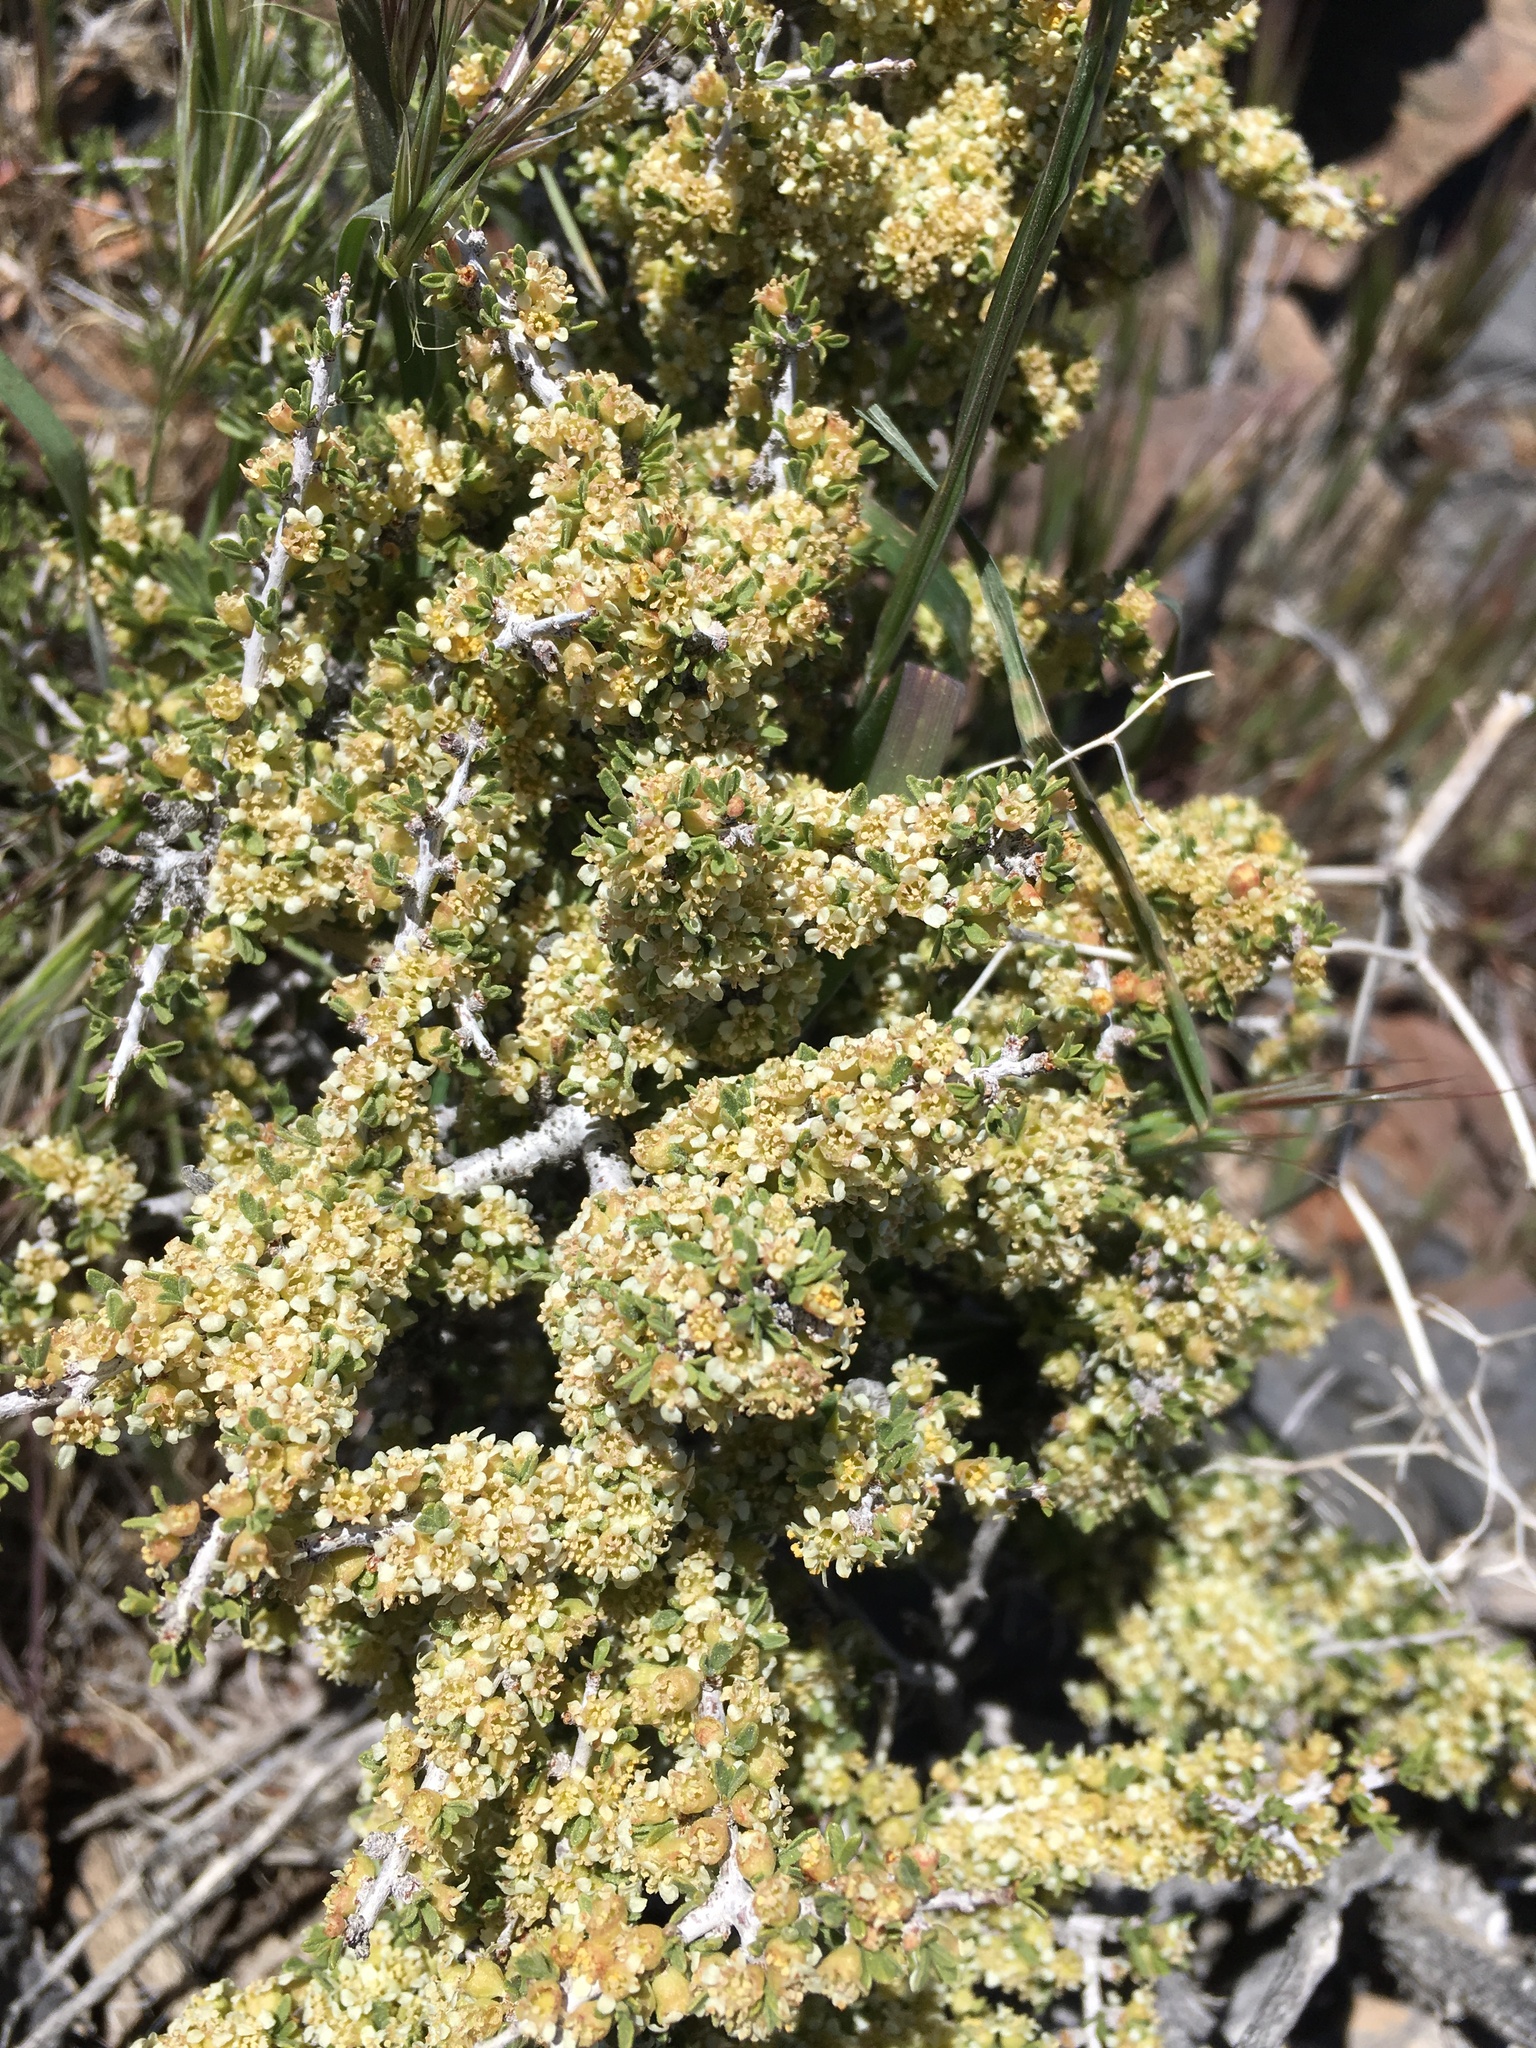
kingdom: Plantae
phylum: Tracheophyta
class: Magnoliopsida
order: Rosales
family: Rosaceae
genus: Prunus
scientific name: Prunus fasciculata
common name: Desert almond
